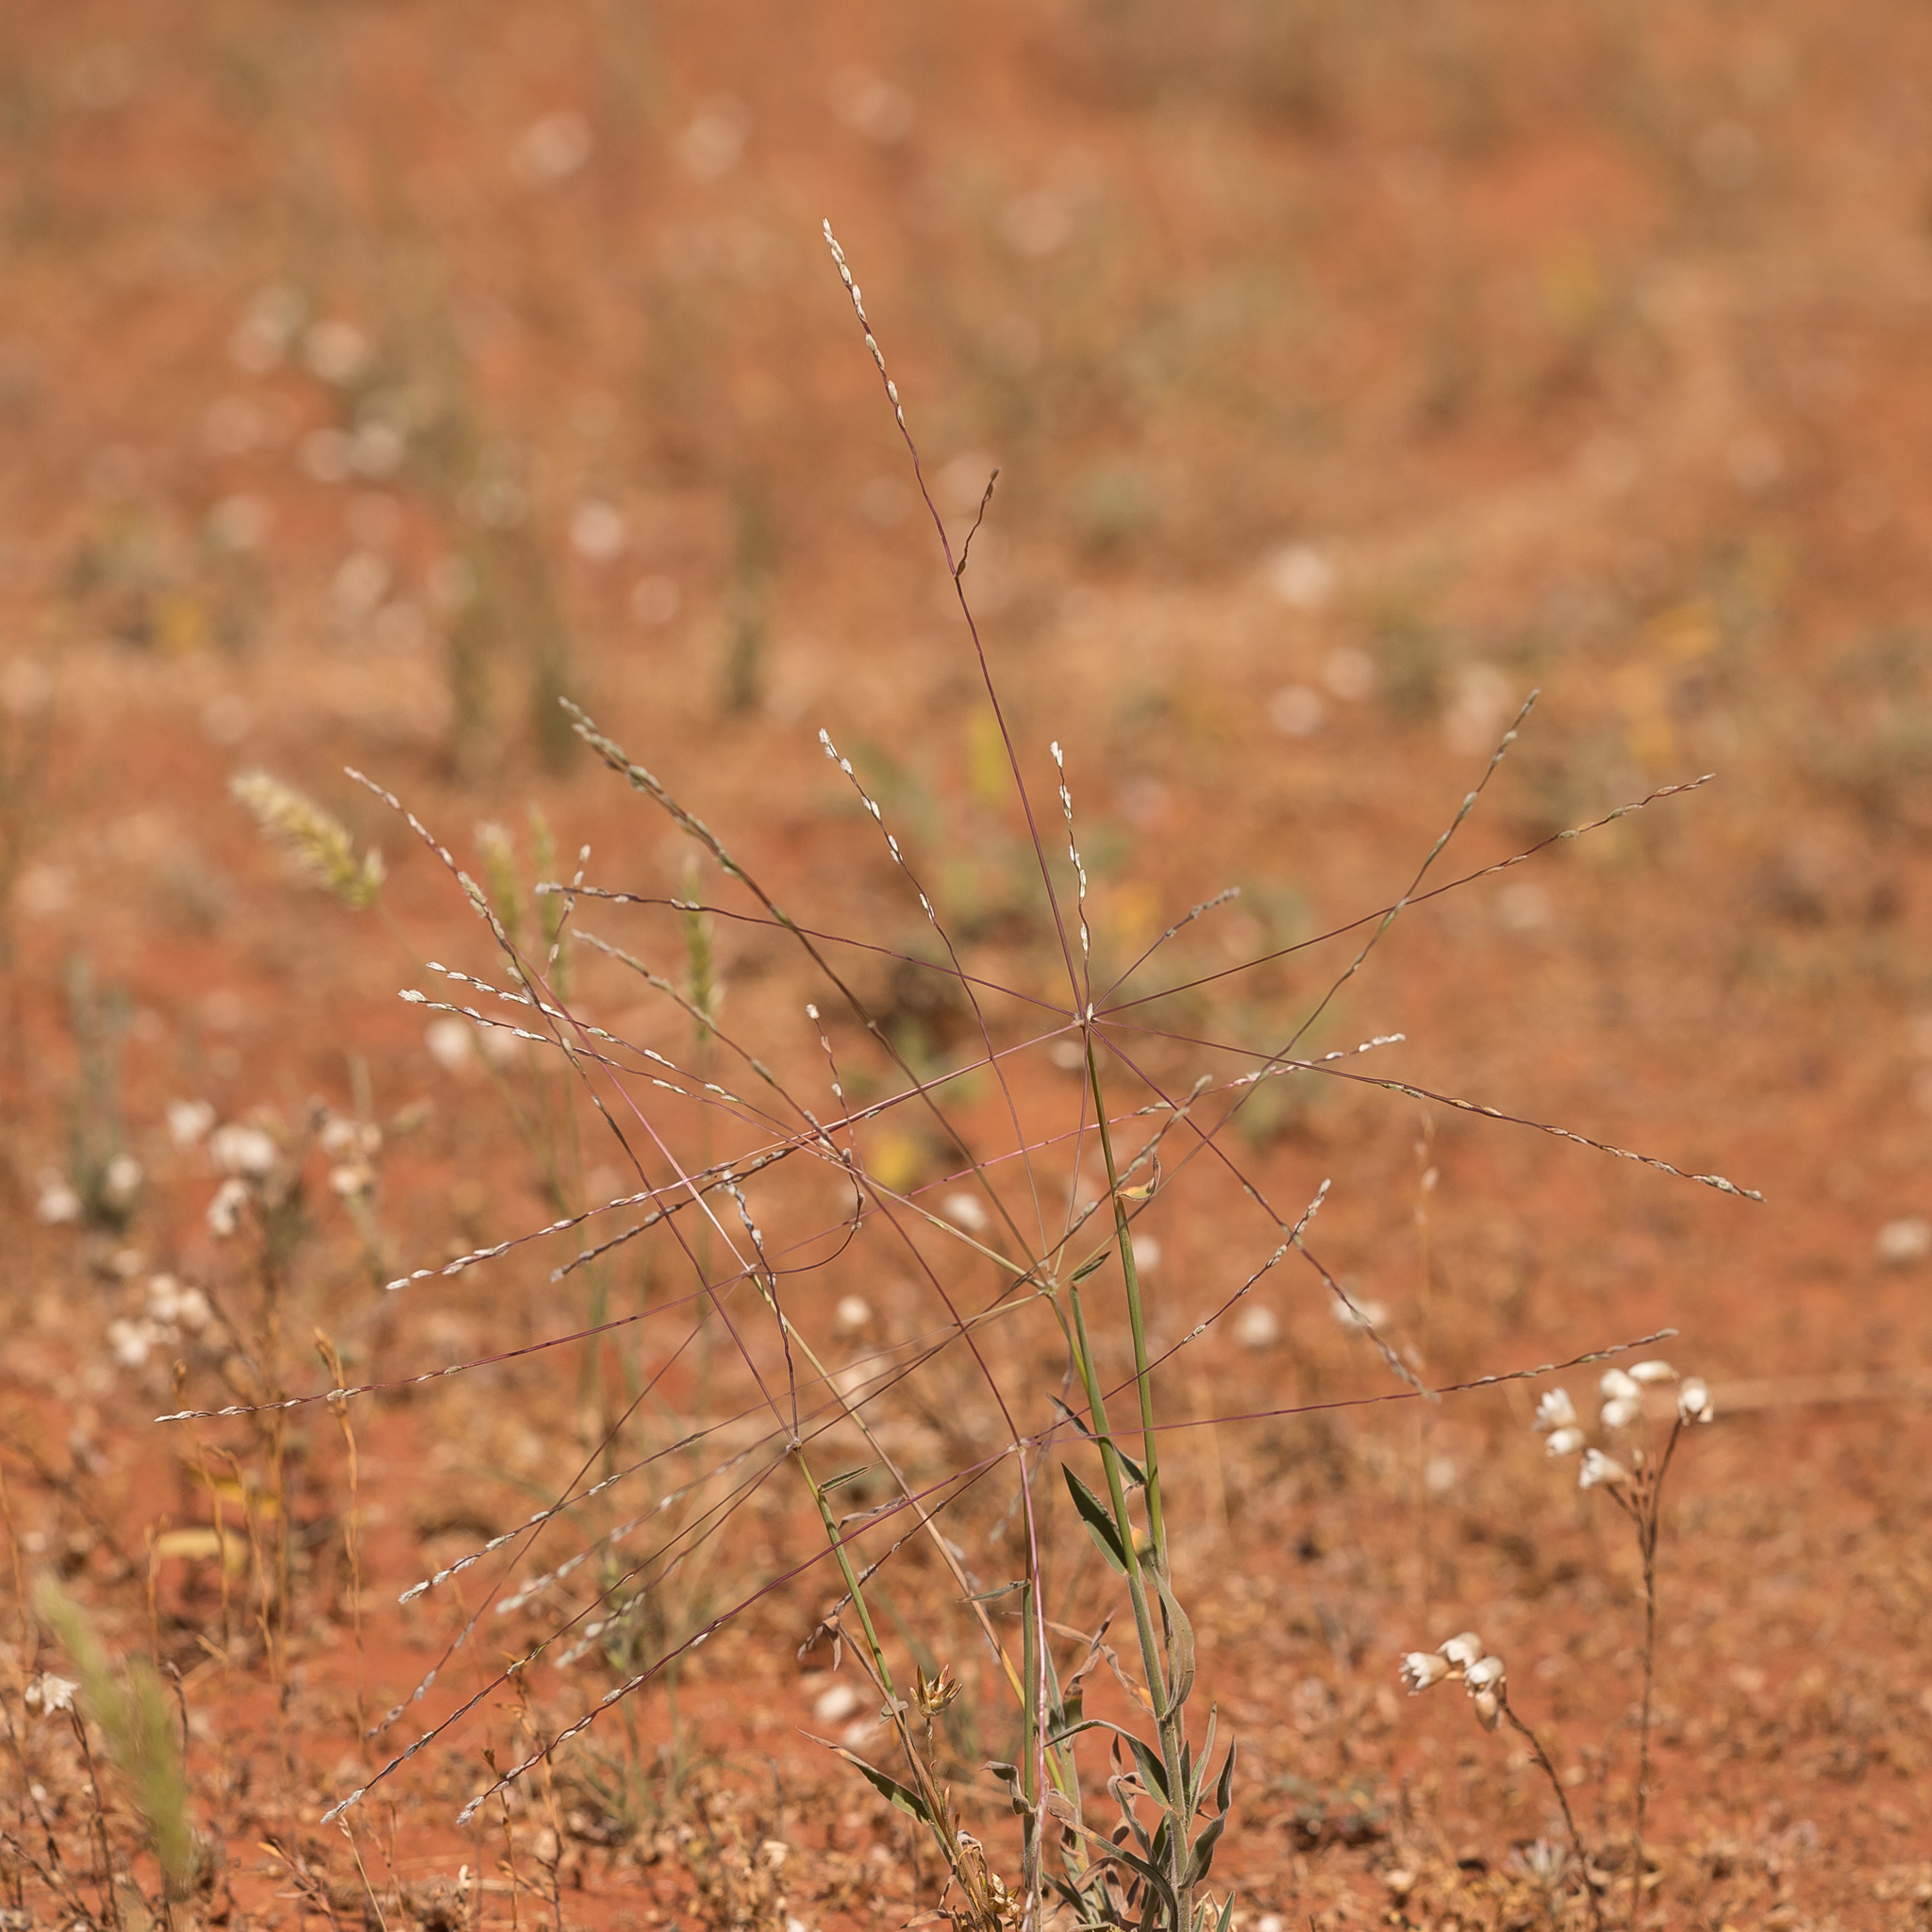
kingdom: Plantae
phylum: Tracheophyta
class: Liliopsida
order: Poales
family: Poaceae
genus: Digitaria
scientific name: Digitaria divaricatissima
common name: Crabgrass
